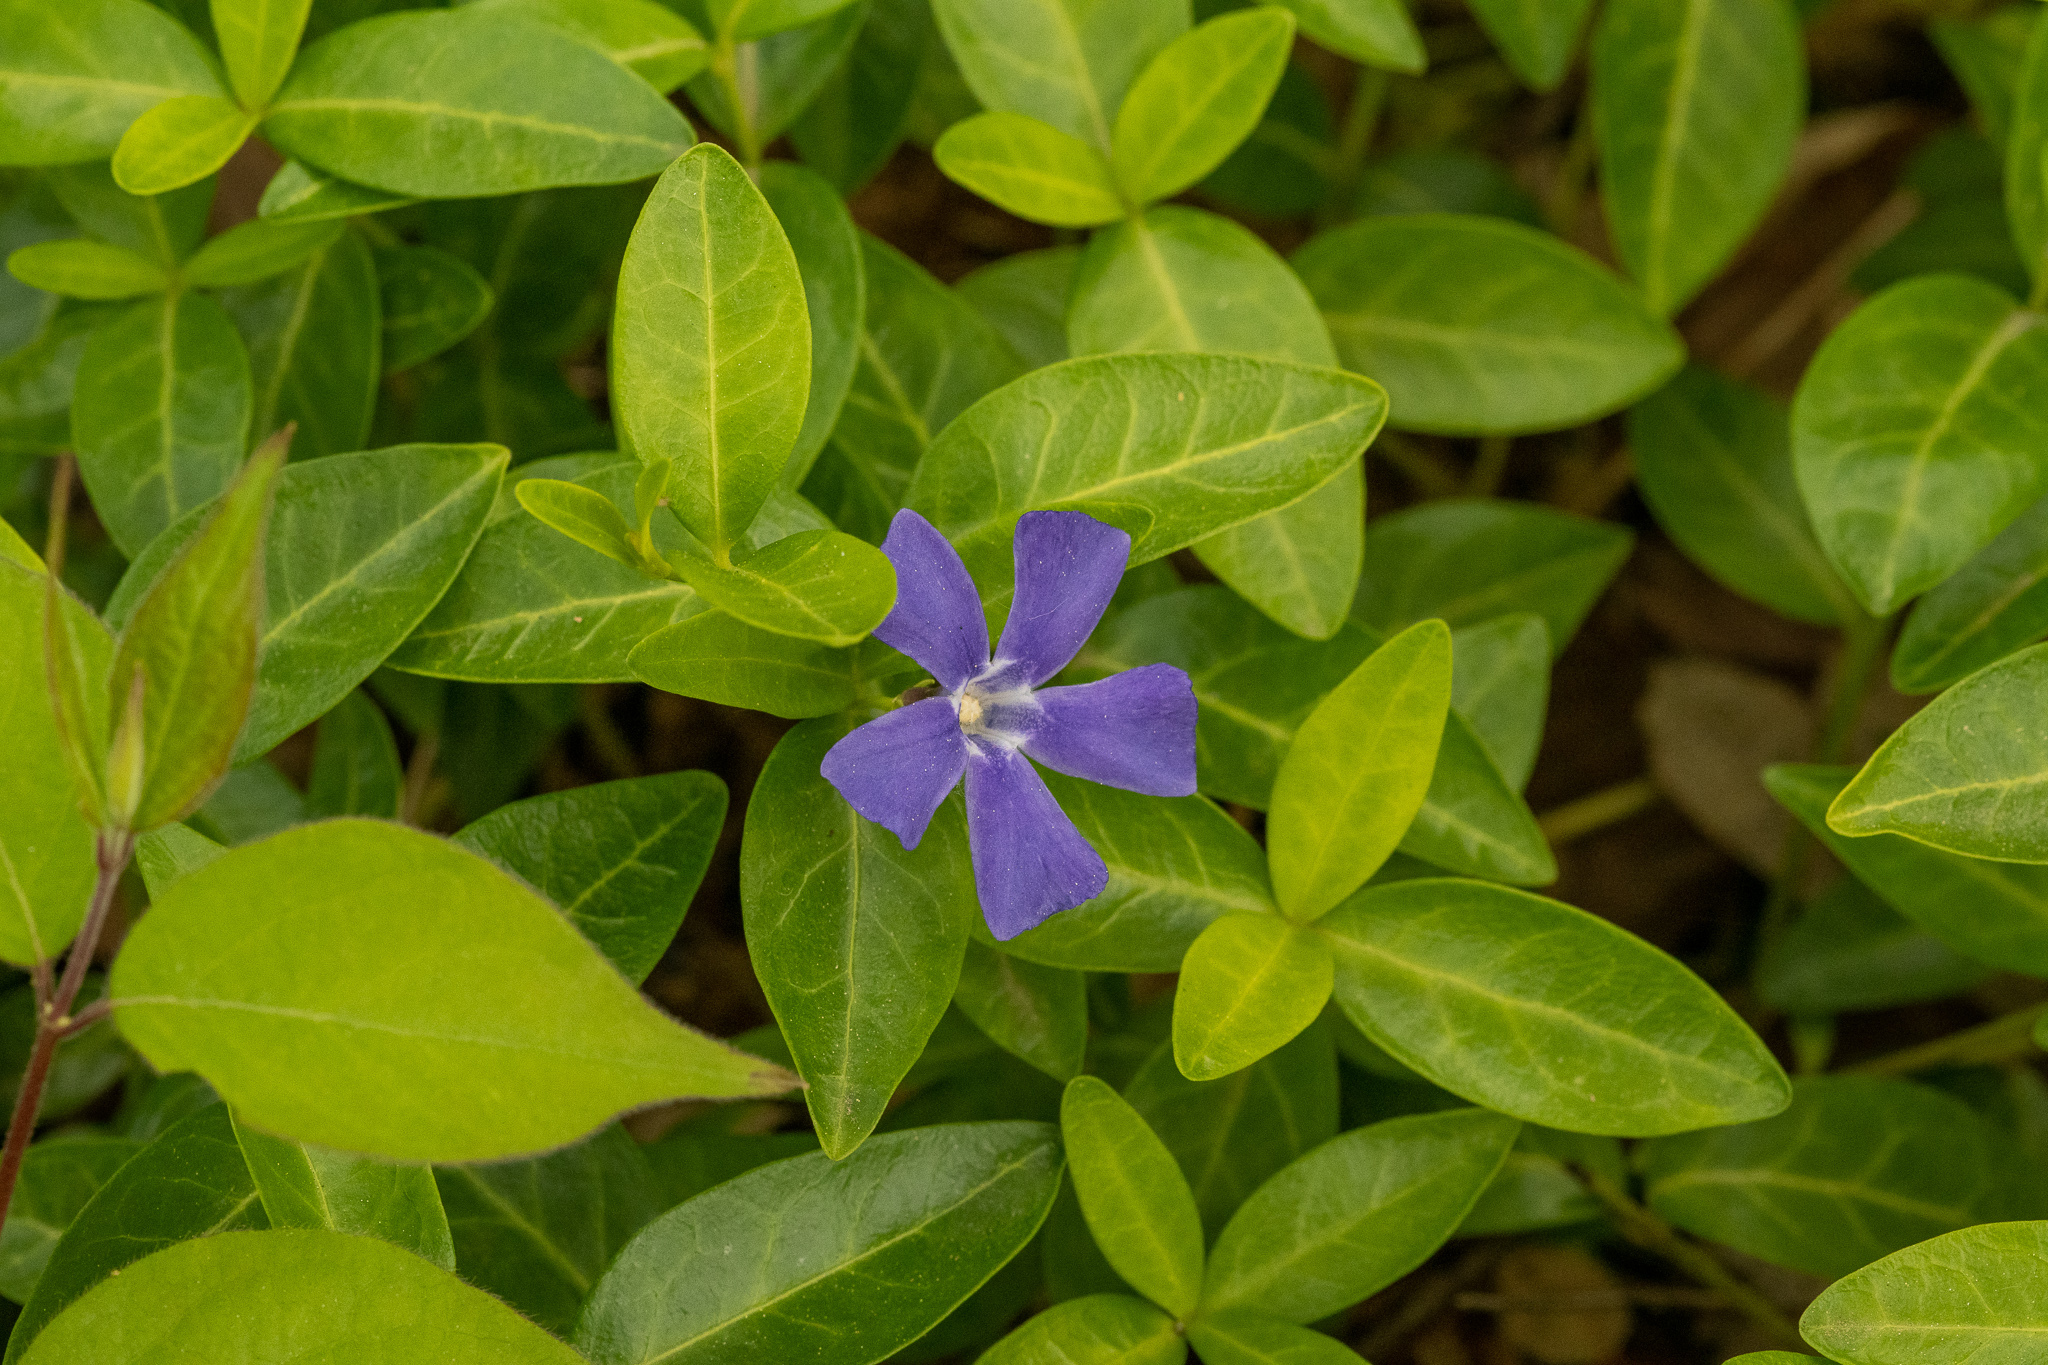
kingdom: Plantae
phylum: Tracheophyta
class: Magnoliopsida
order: Gentianales
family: Apocynaceae
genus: Vinca
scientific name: Vinca minor
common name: Lesser periwinkle
